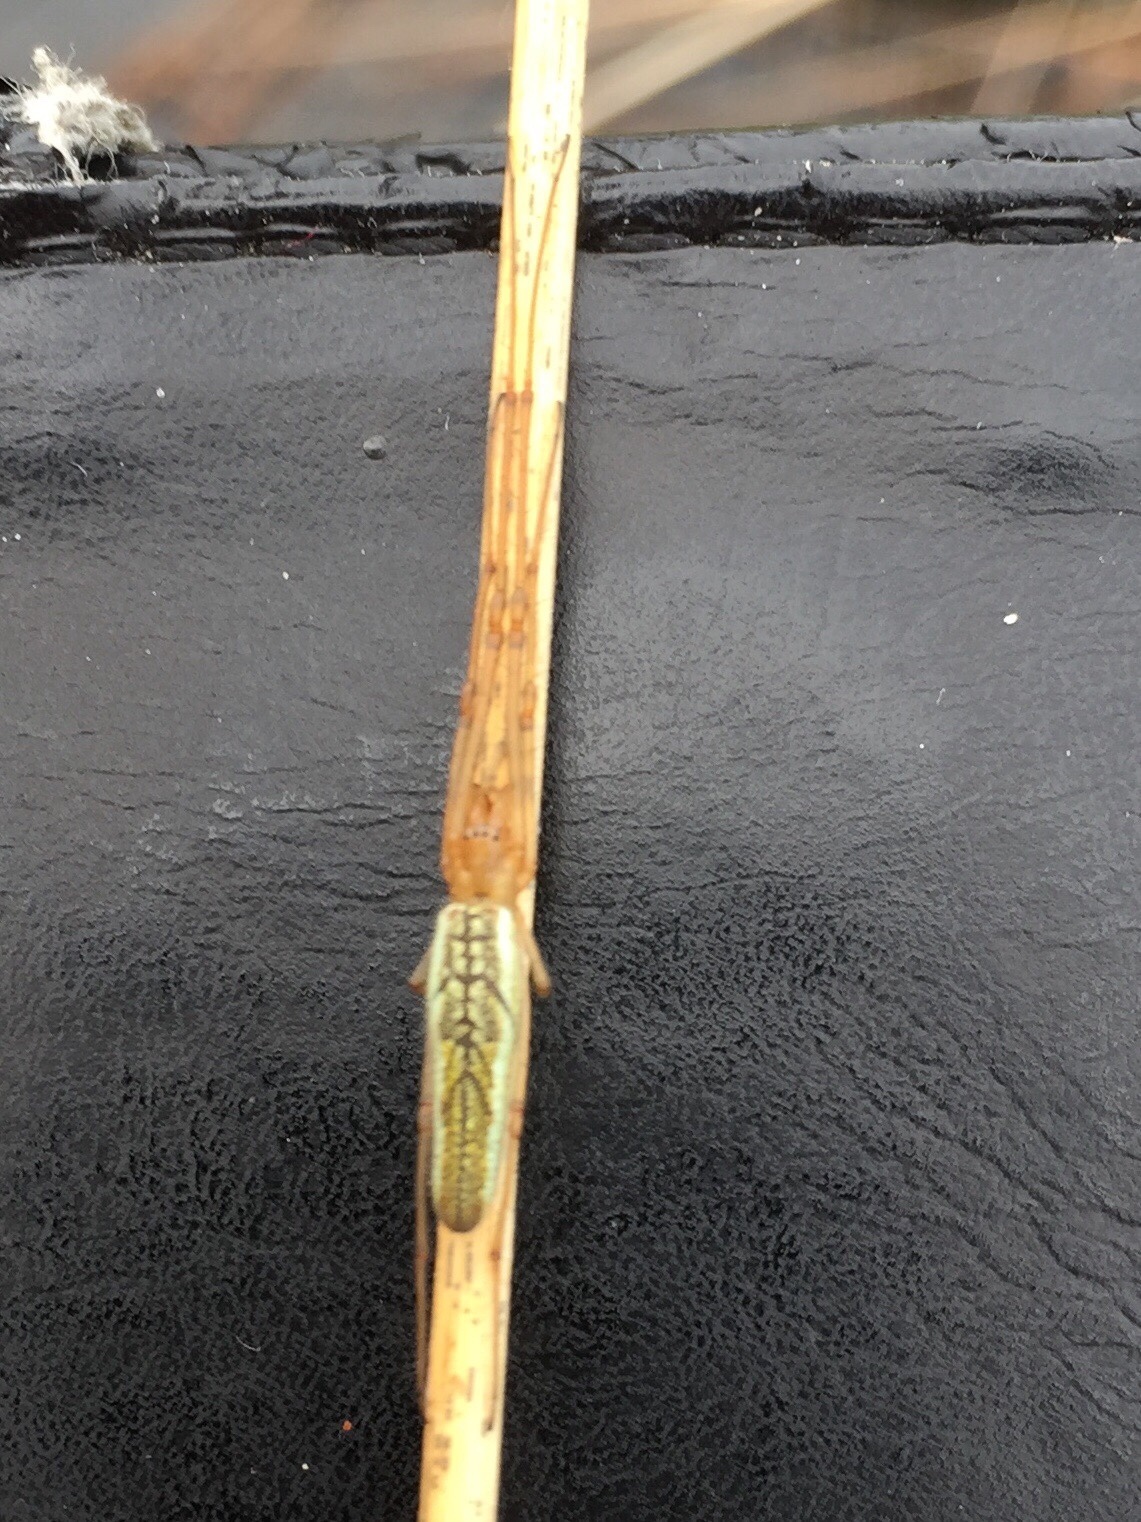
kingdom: Animalia
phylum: Arthropoda
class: Arachnida
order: Araneae
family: Tetragnathidae
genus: Tetragnatha
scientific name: Tetragnatha extensa
